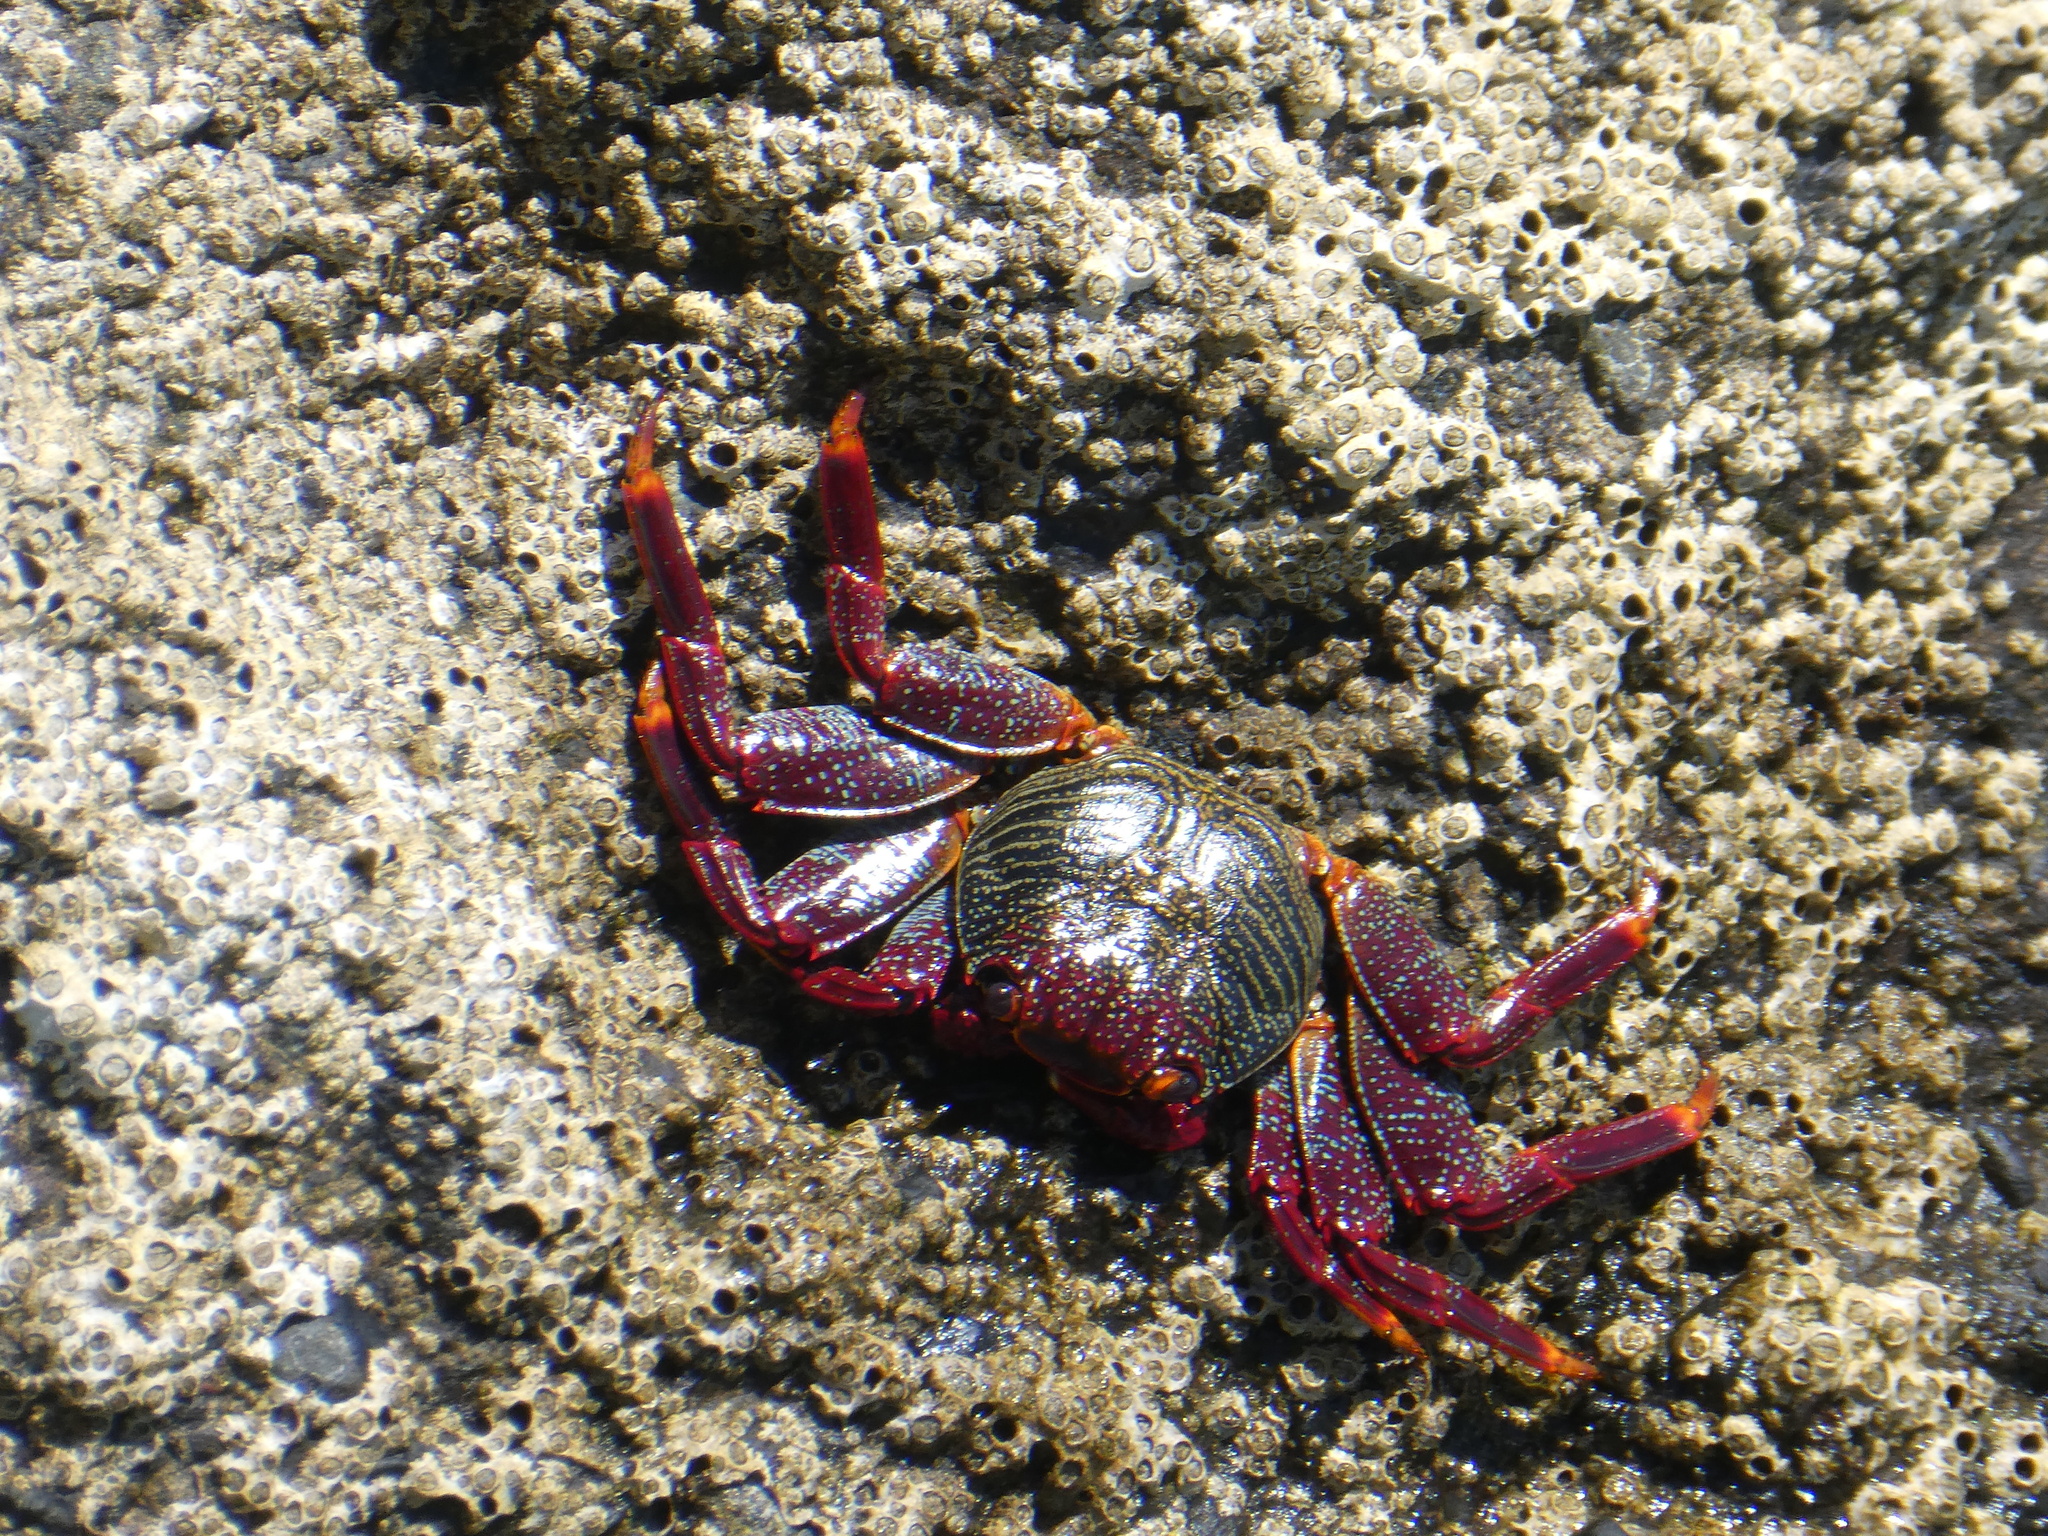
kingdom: Animalia
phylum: Arthropoda
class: Malacostraca
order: Decapoda
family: Grapsidae
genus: Grapsus
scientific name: Grapsus adscensionis
